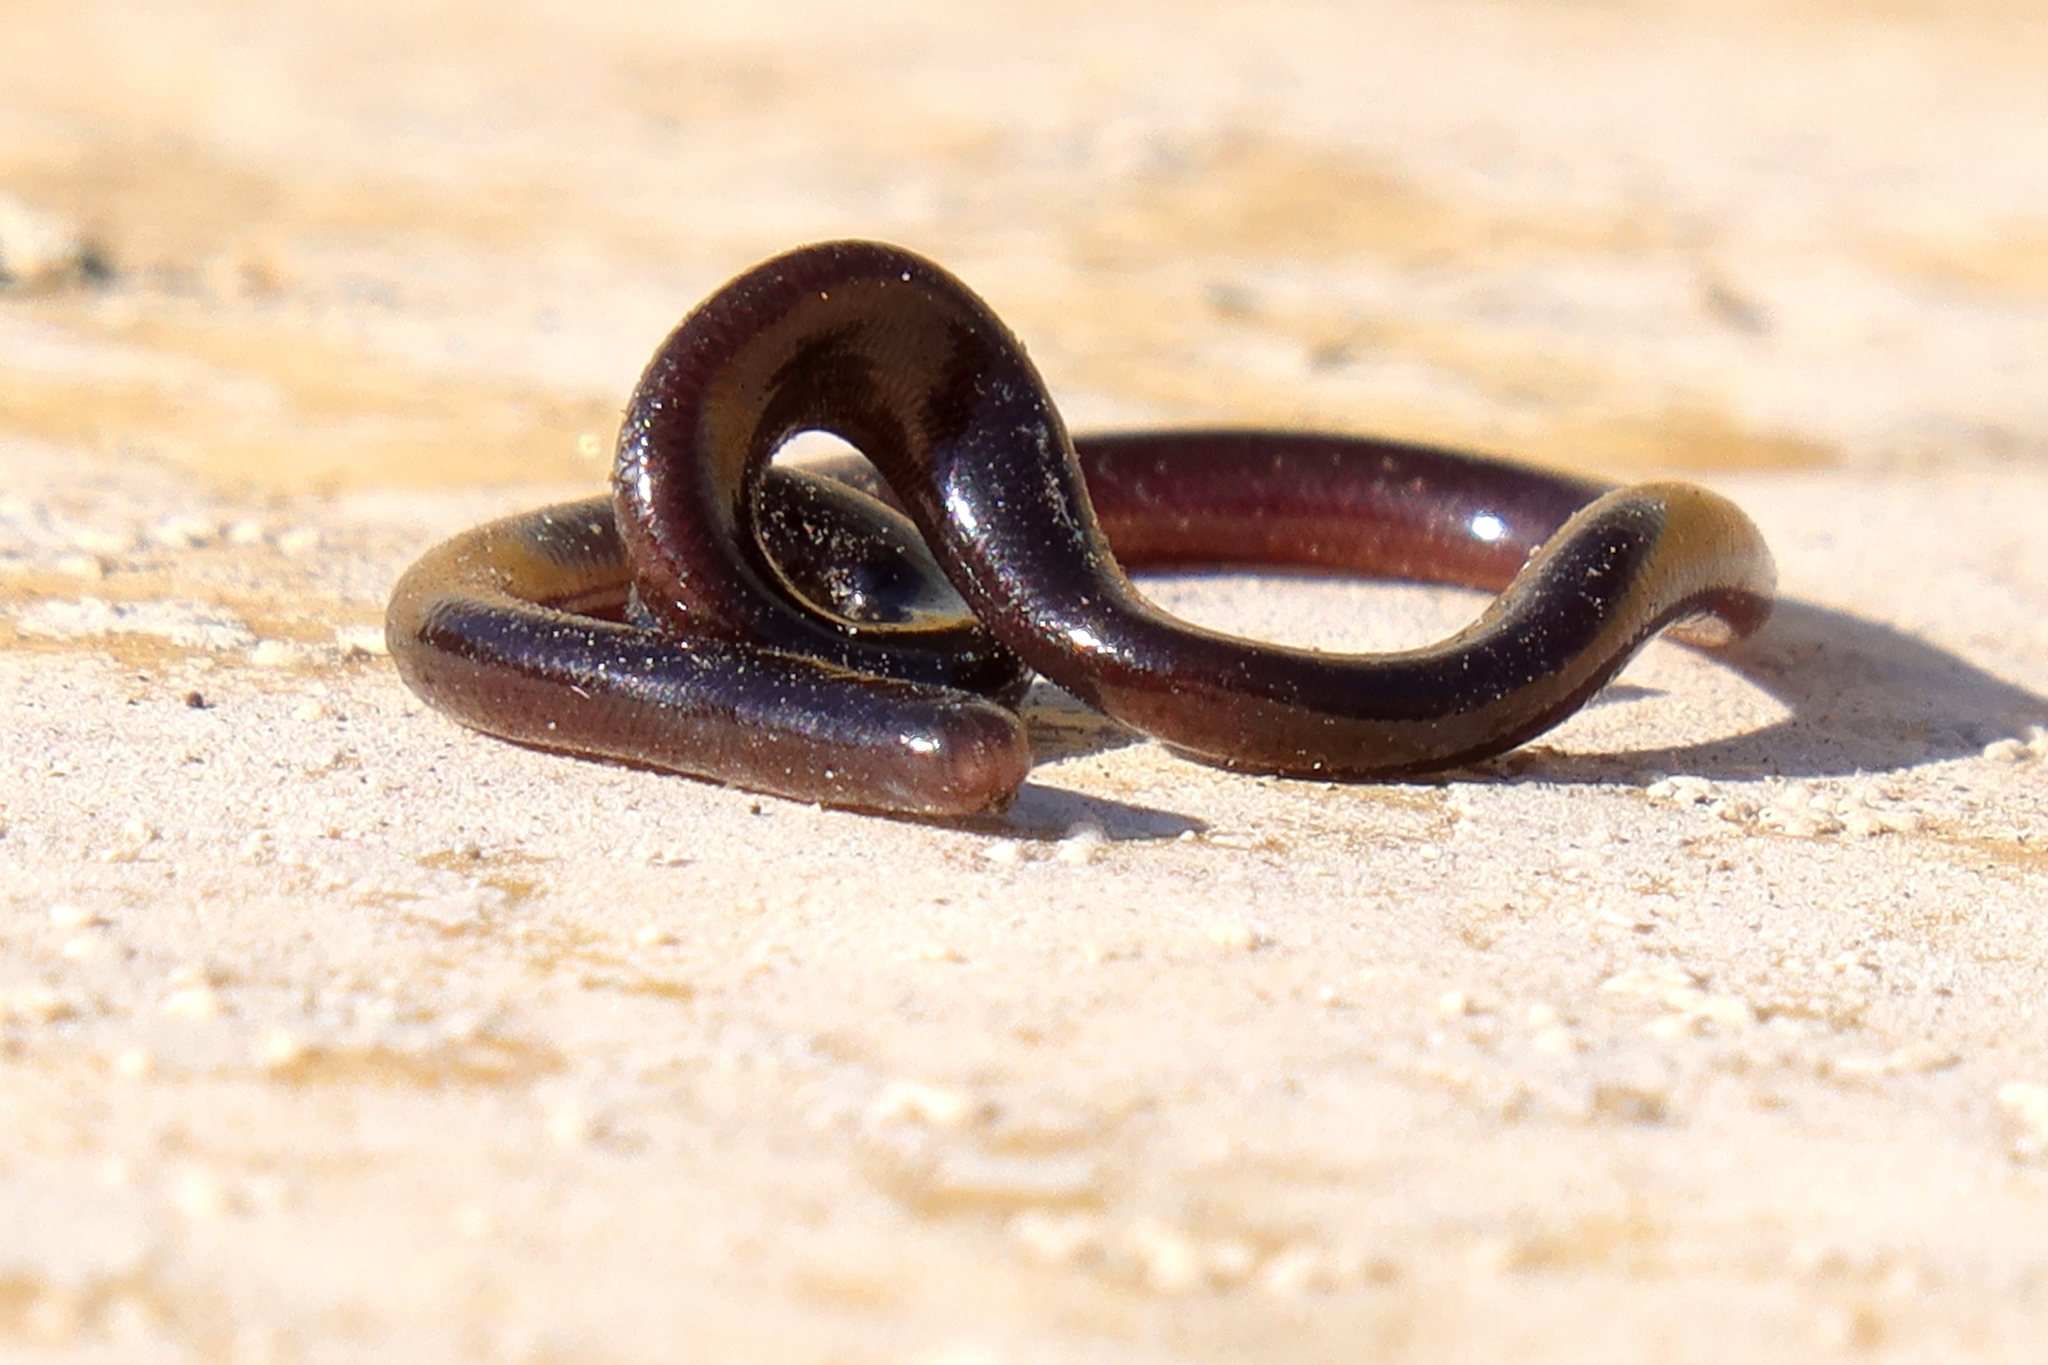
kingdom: Animalia
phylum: Chordata
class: Squamata
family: Typhlopidae
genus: Indotyphlops
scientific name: Indotyphlops braminus
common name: Brahminy blindsnake
